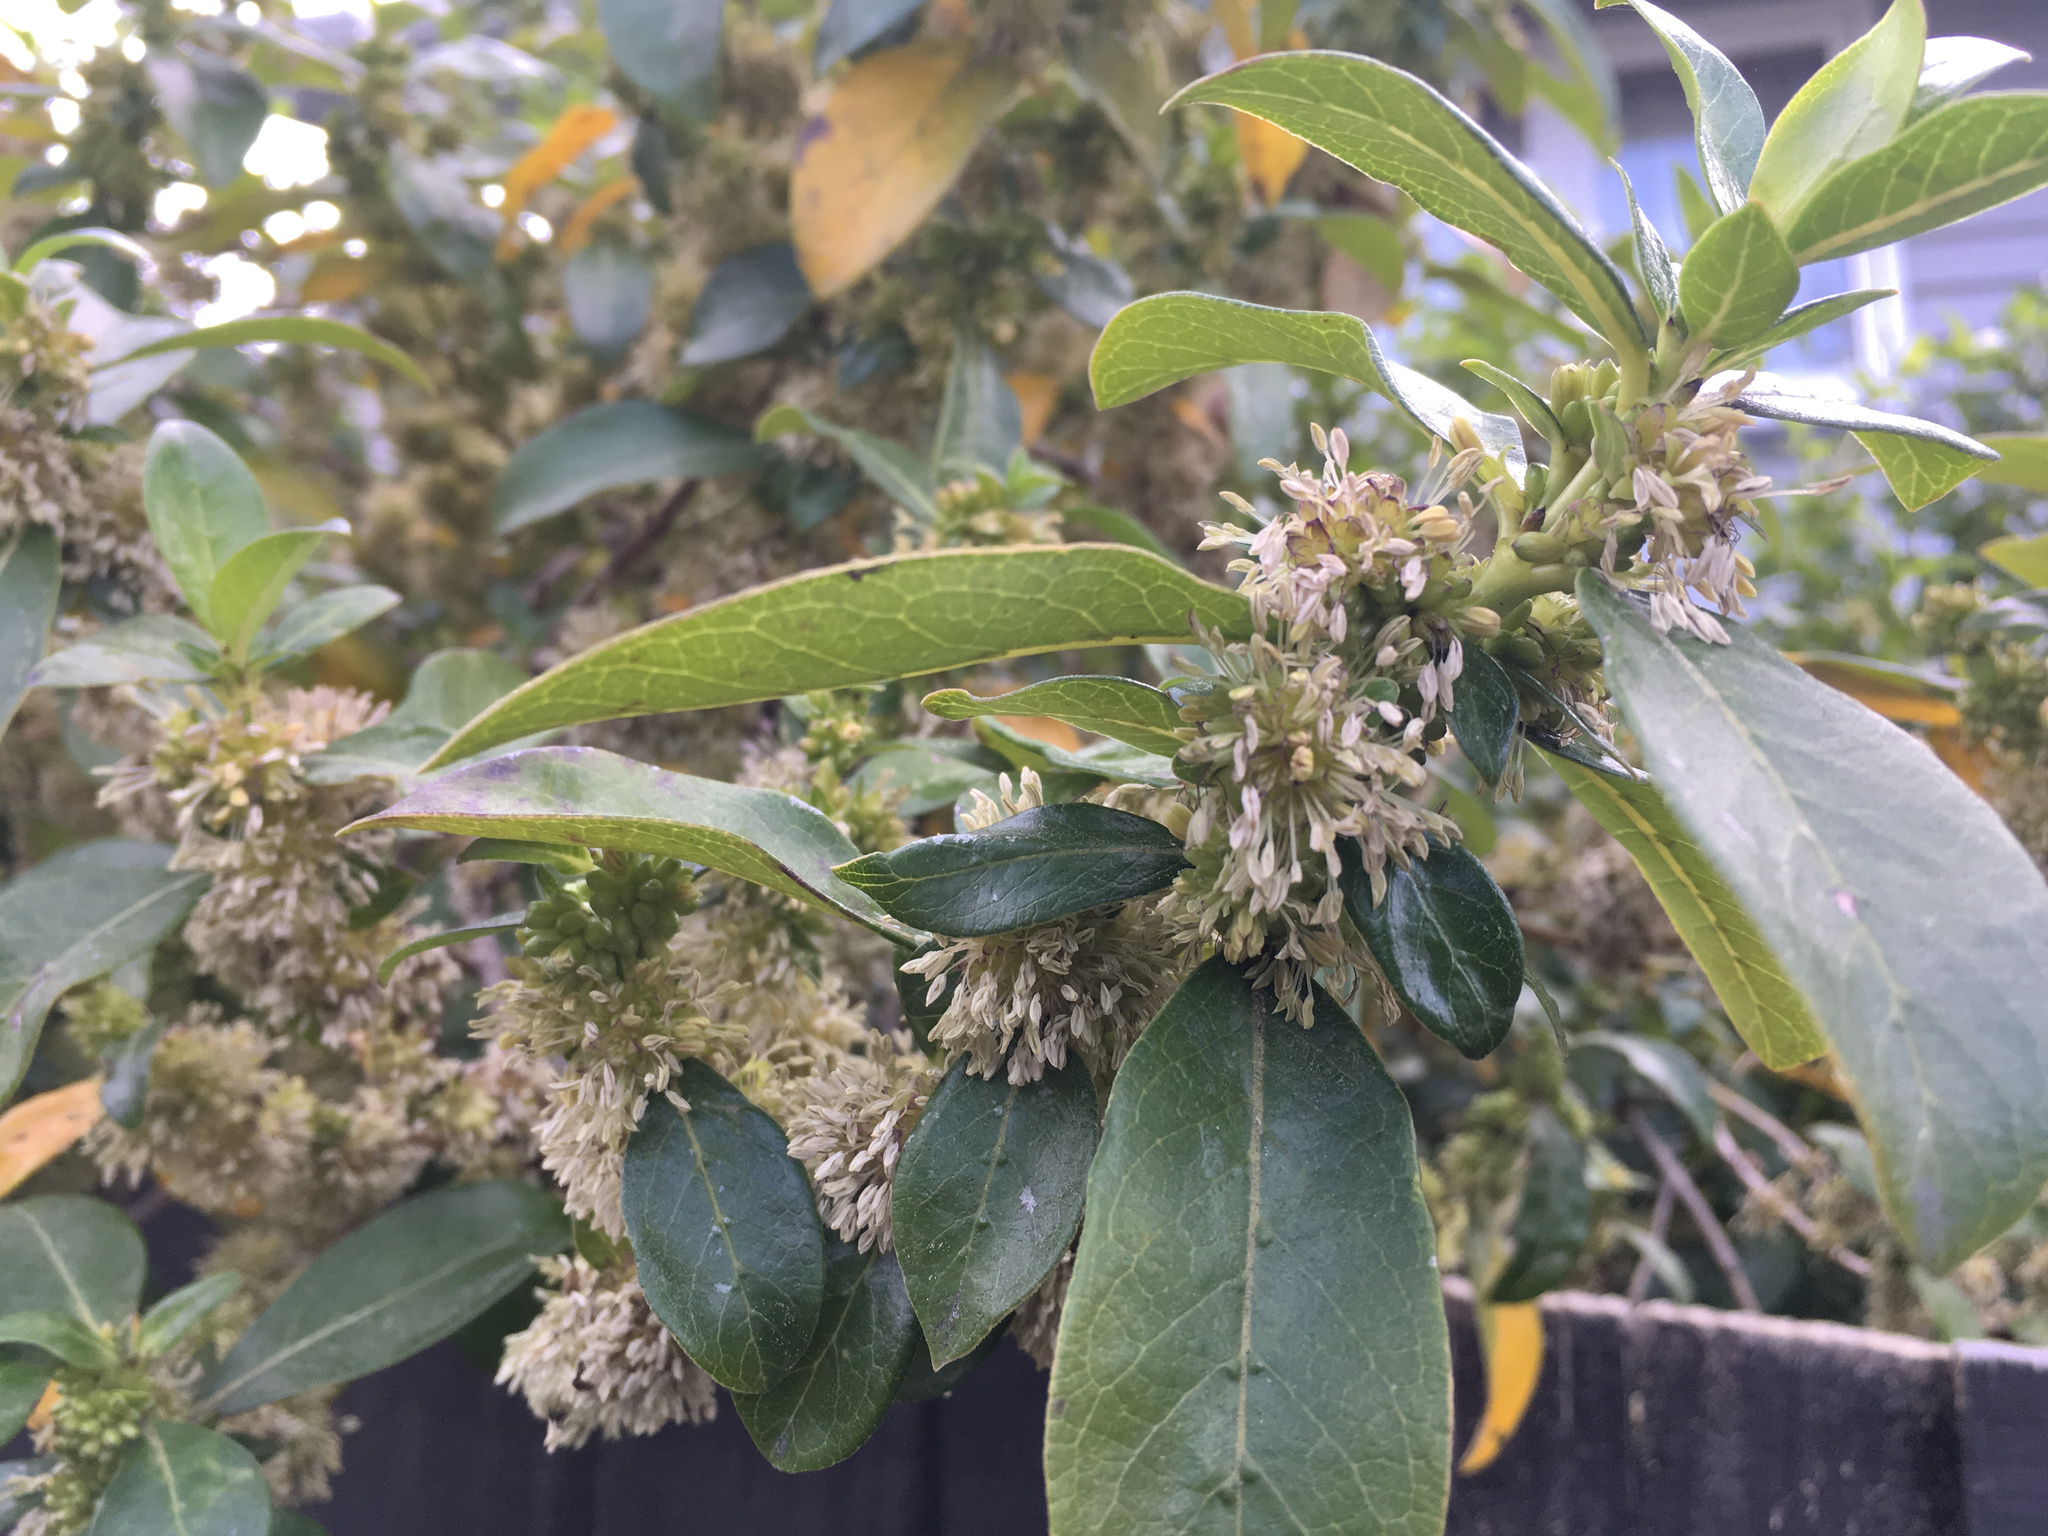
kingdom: Plantae
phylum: Tracheophyta
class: Magnoliopsida
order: Gentianales
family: Rubiaceae
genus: Coprosma
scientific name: Coprosma robusta
